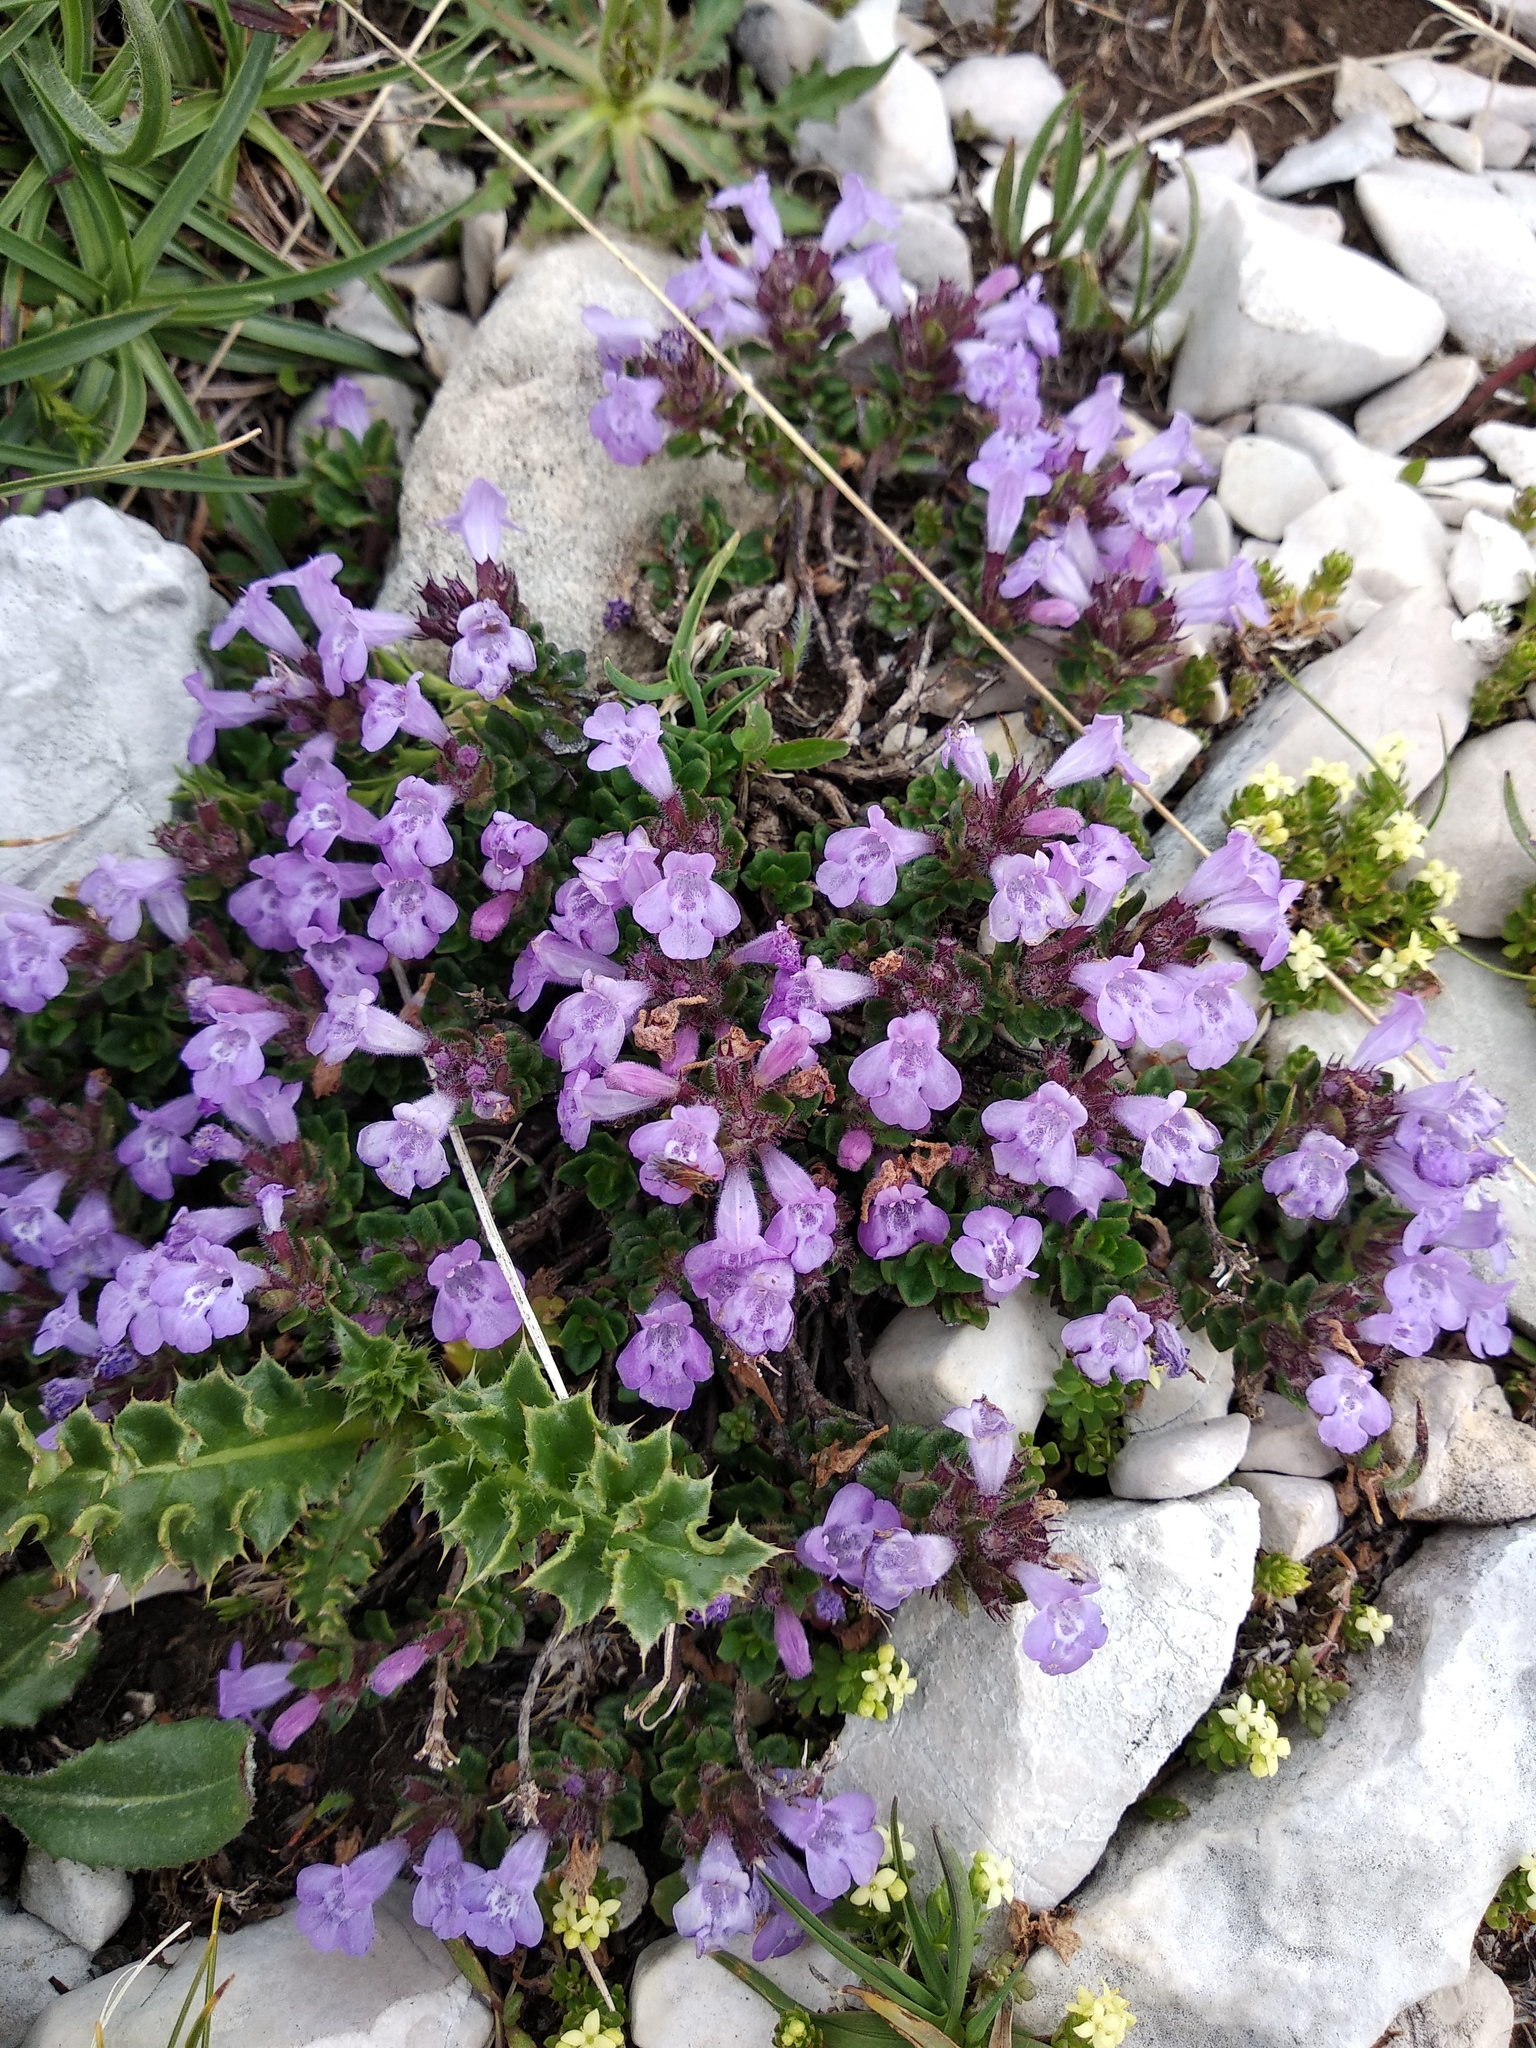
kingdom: Plantae
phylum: Tracheophyta
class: Magnoliopsida
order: Lamiales
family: Lamiaceae
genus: Clinopodium
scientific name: Clinopodium alpinum
